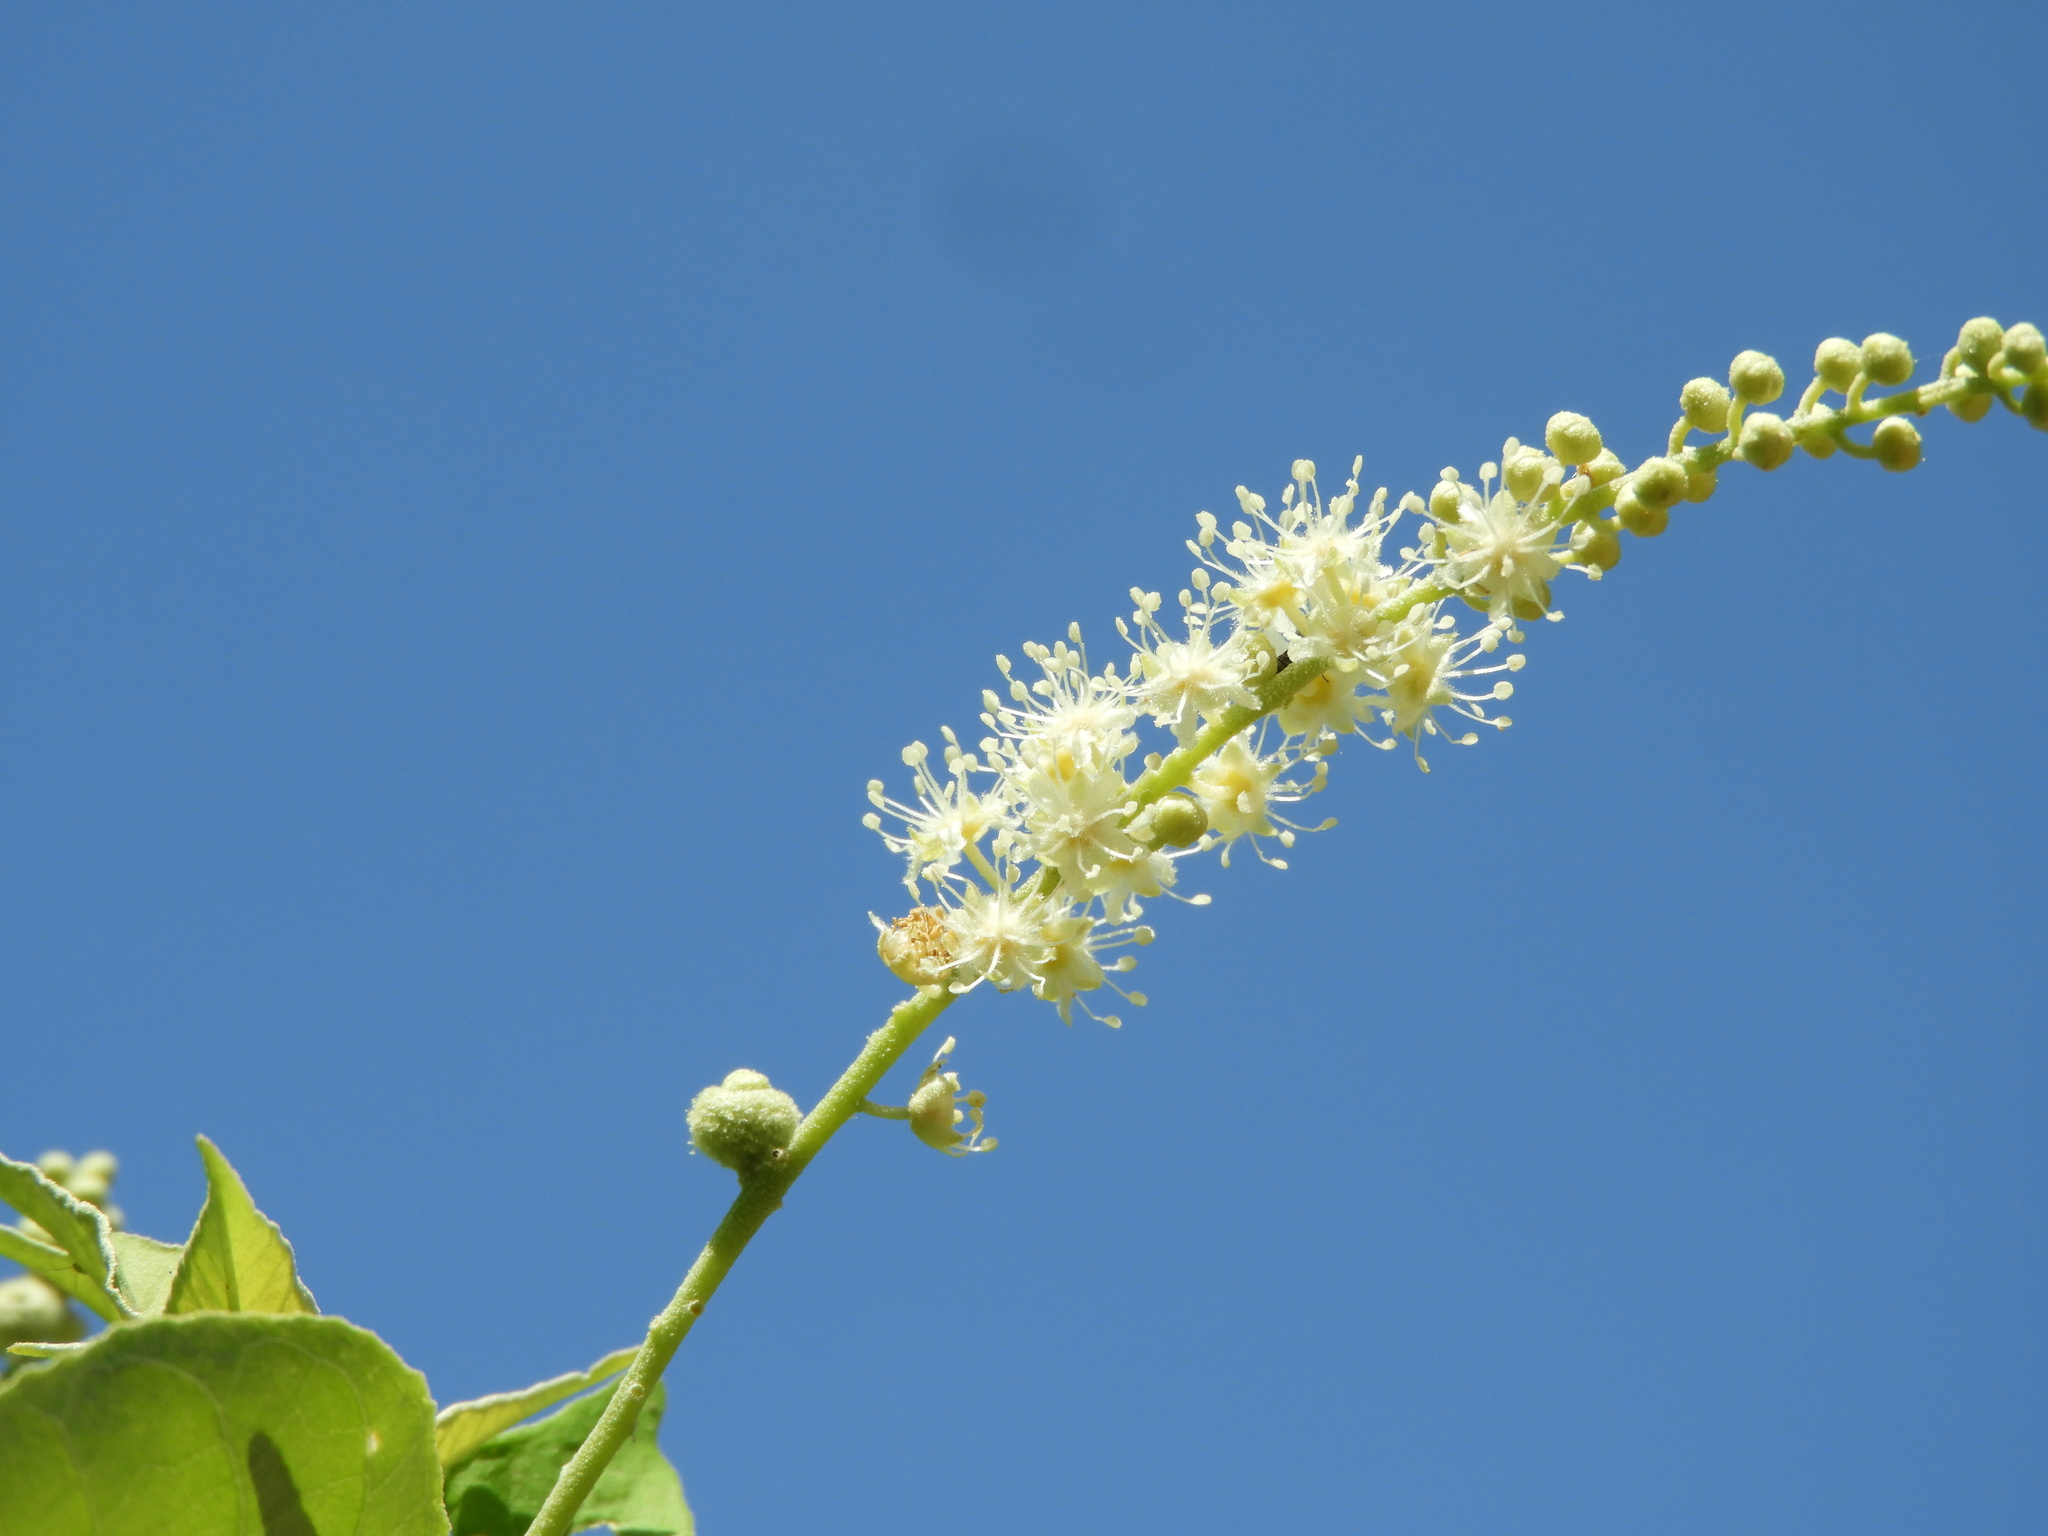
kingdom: Plantae
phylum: Tracheophyta
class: Magnoliopsida
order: Malpighiales
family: Euphorbiaceae
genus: Croton
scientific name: Croton culiacanensis
